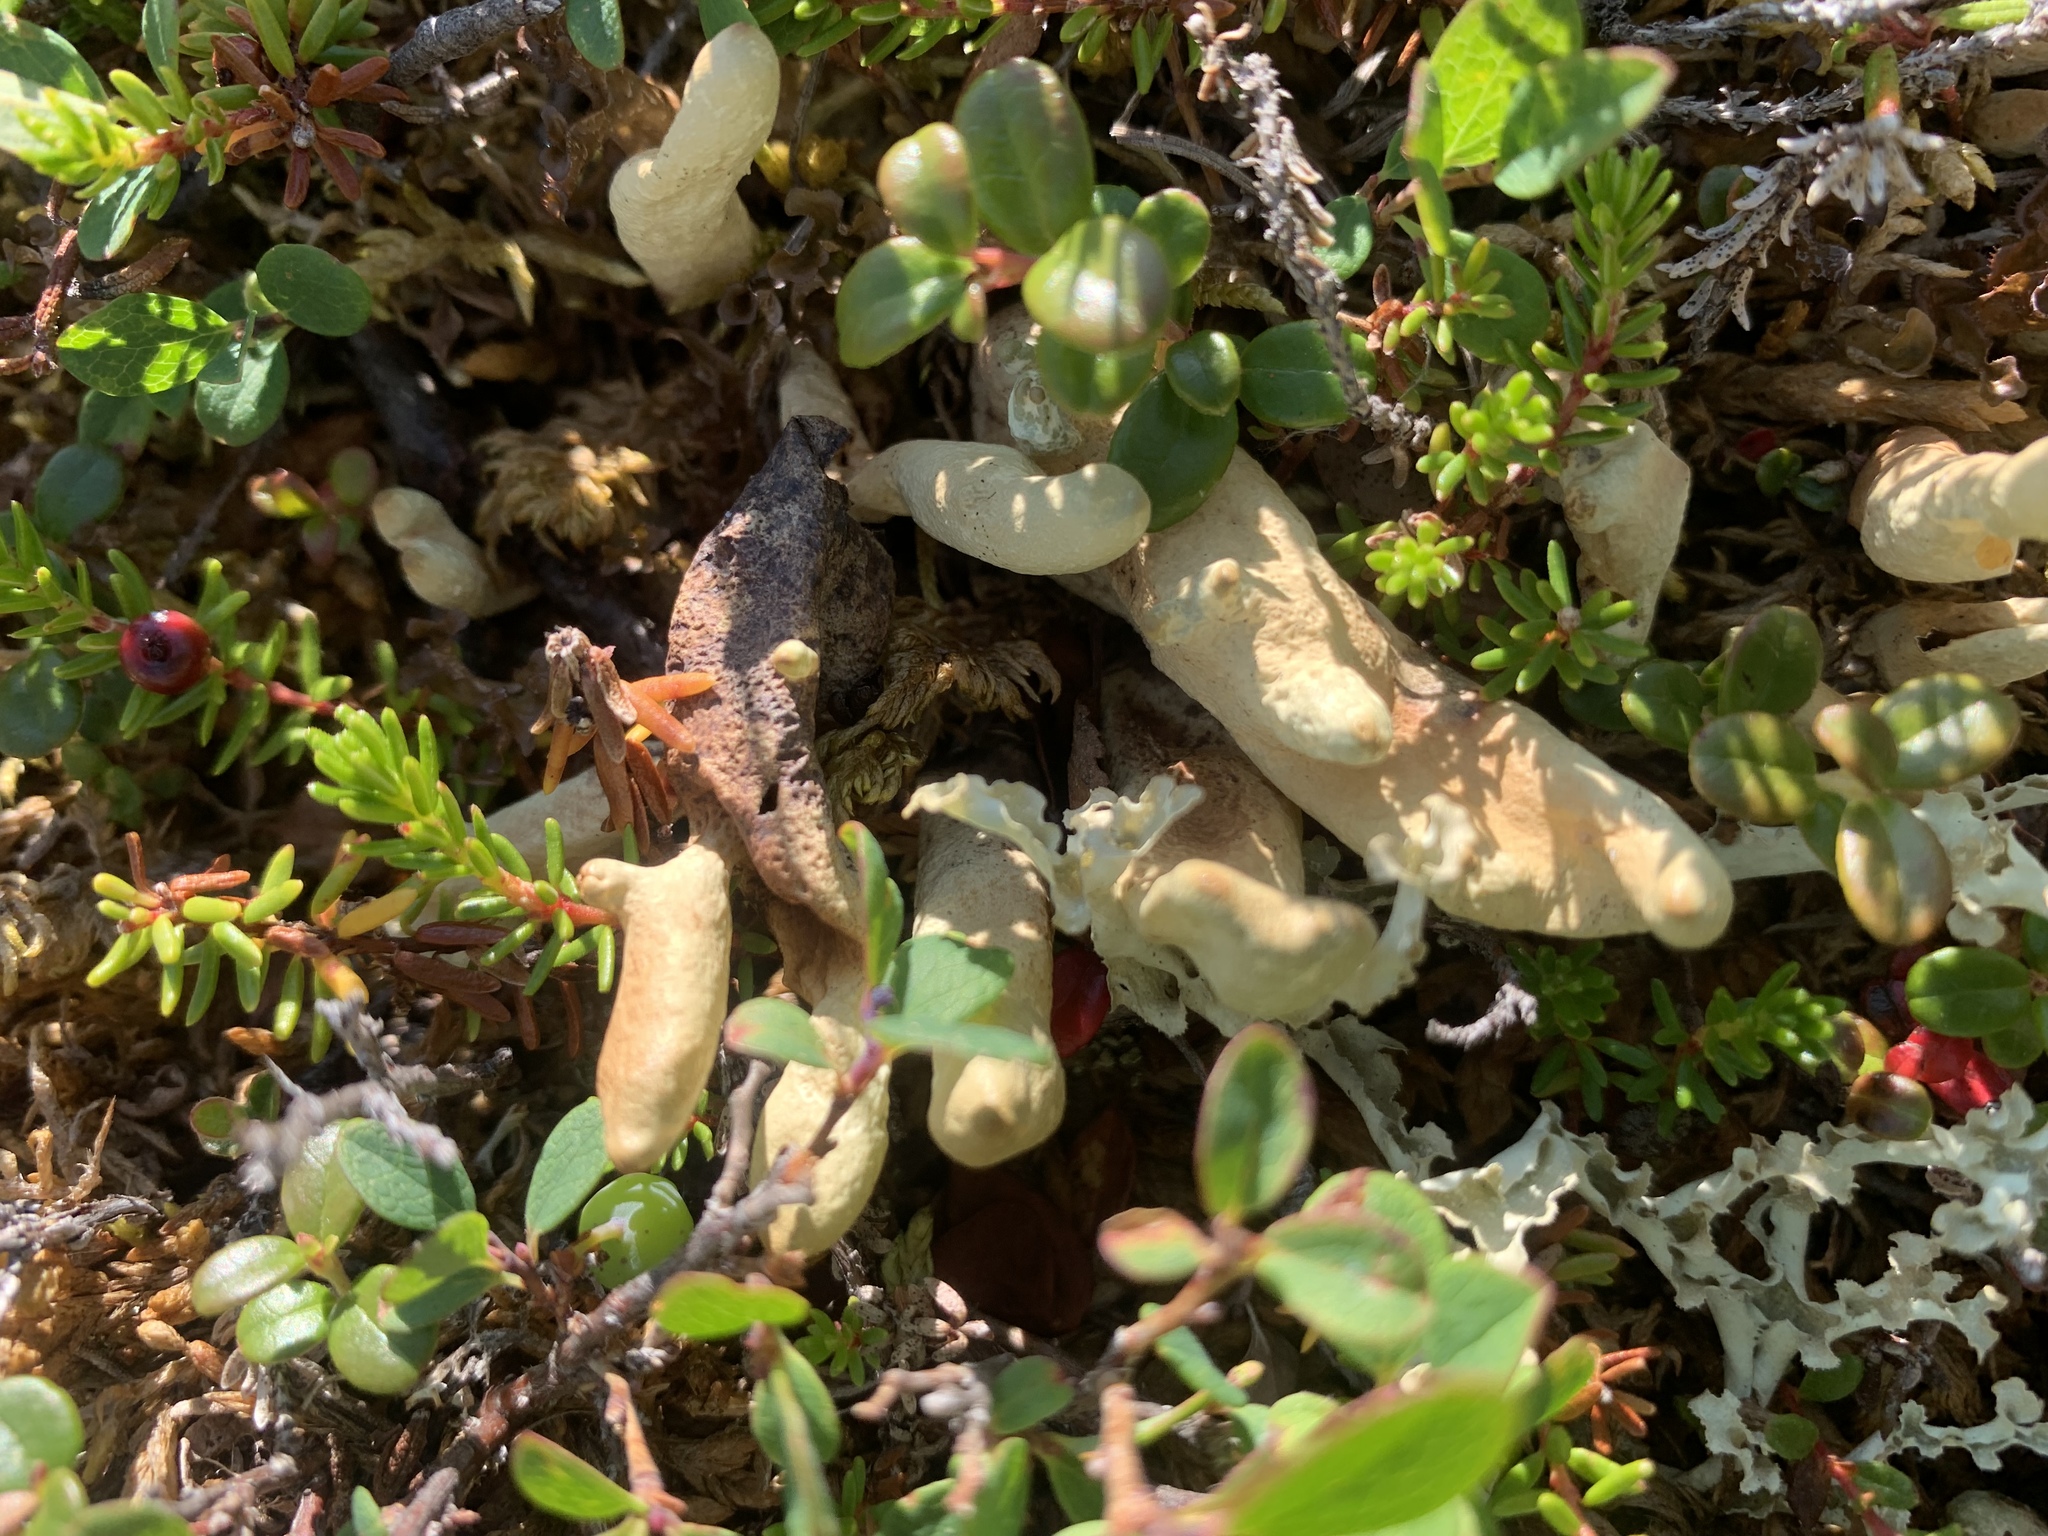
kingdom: Fungi
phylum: Ascomycota
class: Lecanoromycetes
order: Lecanorales
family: Parmeliaceae
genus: Dactylina
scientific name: Dactylina arctica
